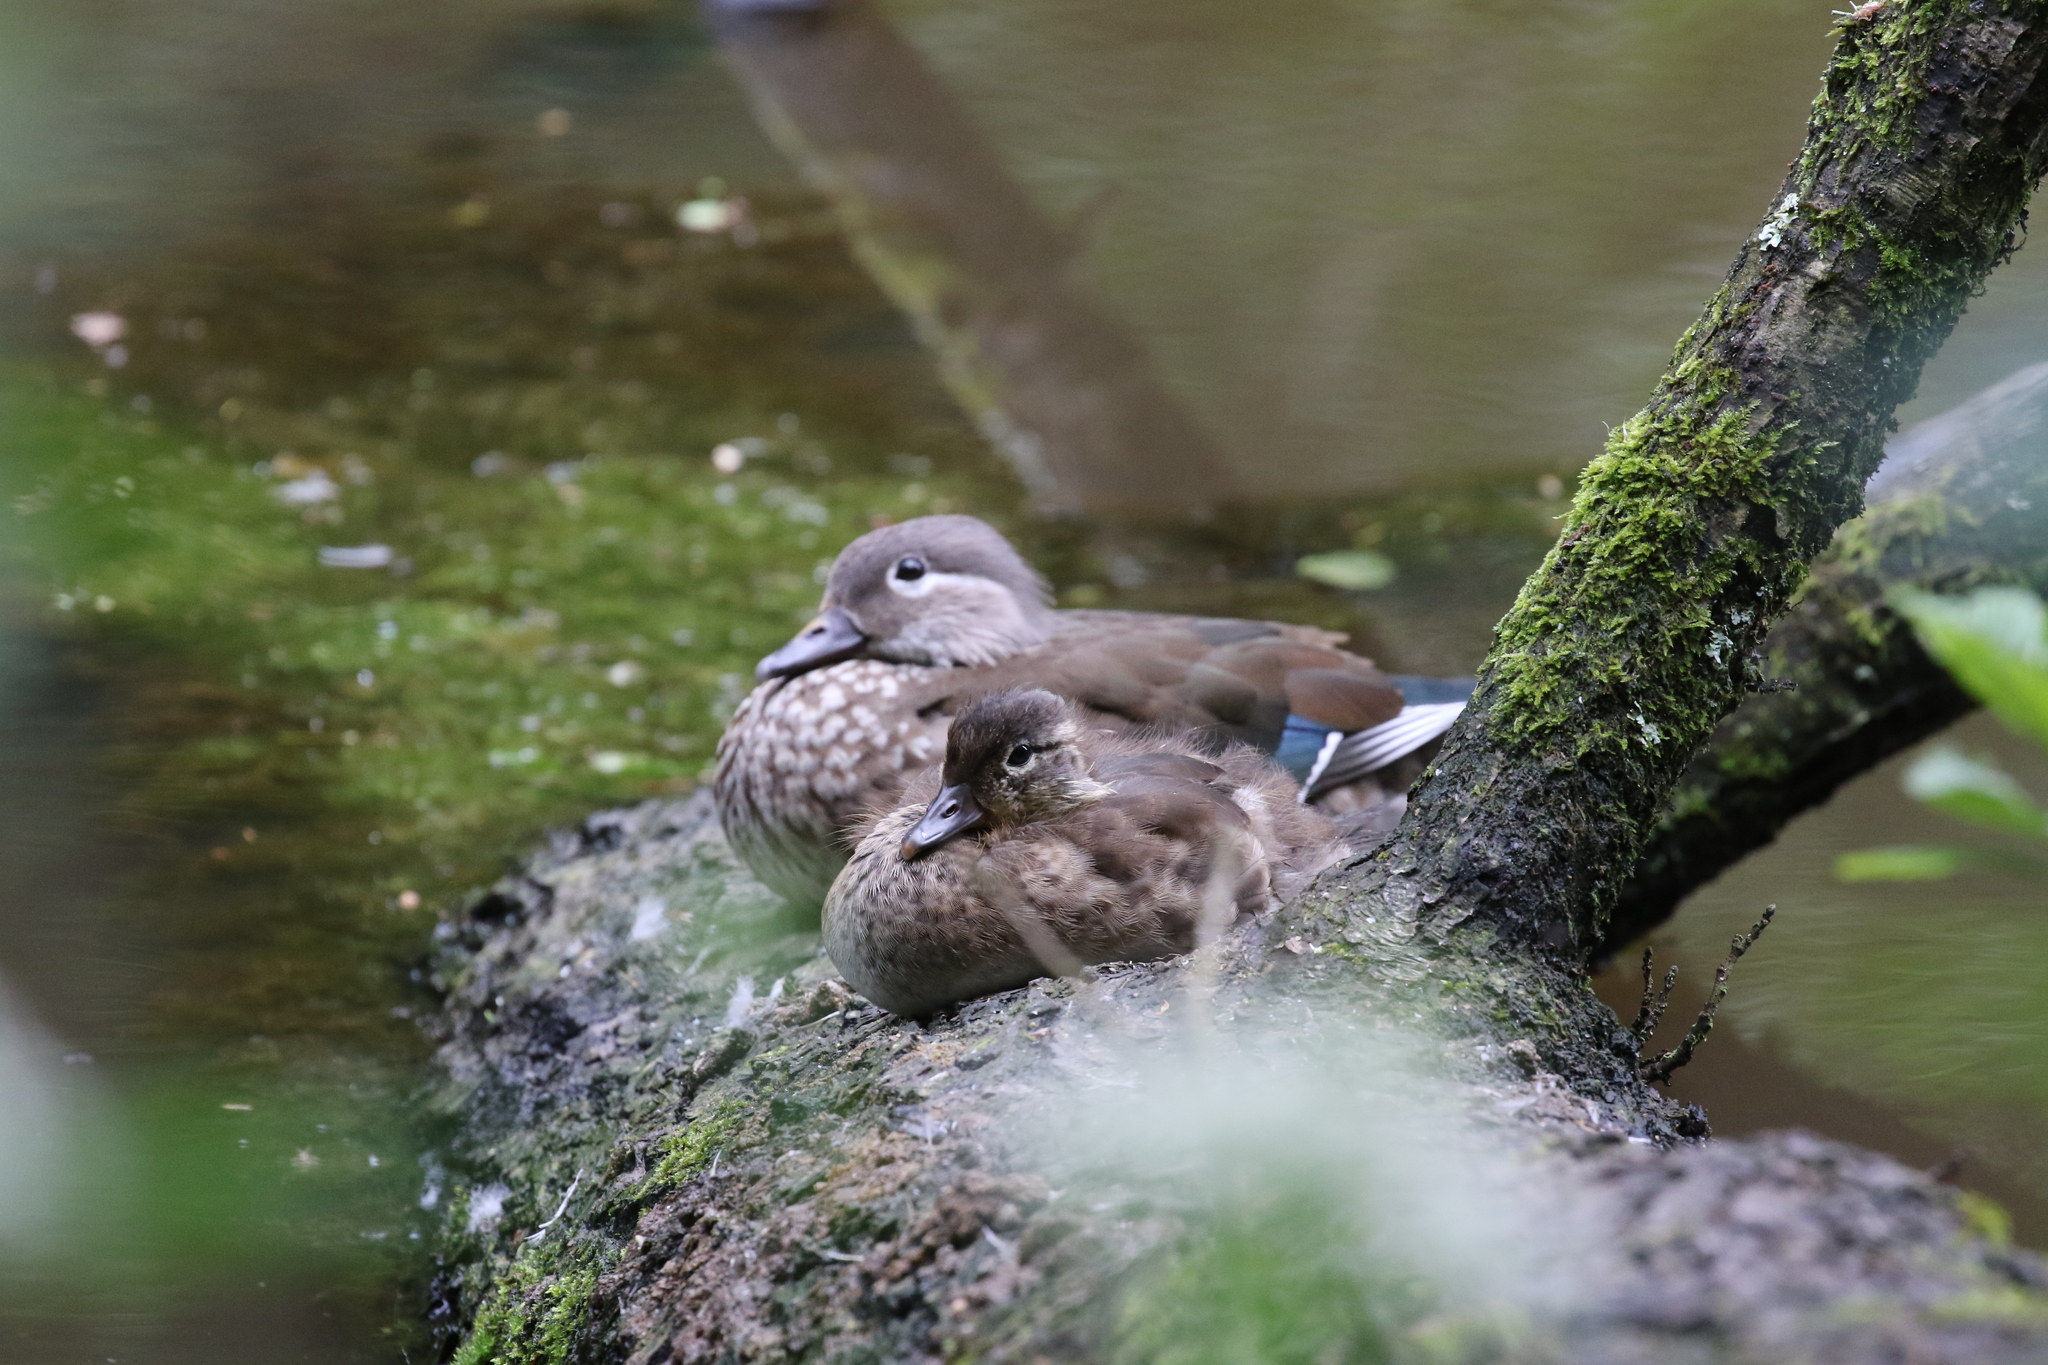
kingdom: Animalia
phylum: Chordata
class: Aves
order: Anseriformes
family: Anatidae
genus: Aix
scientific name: Aix galericulata
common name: Mandarin duck
